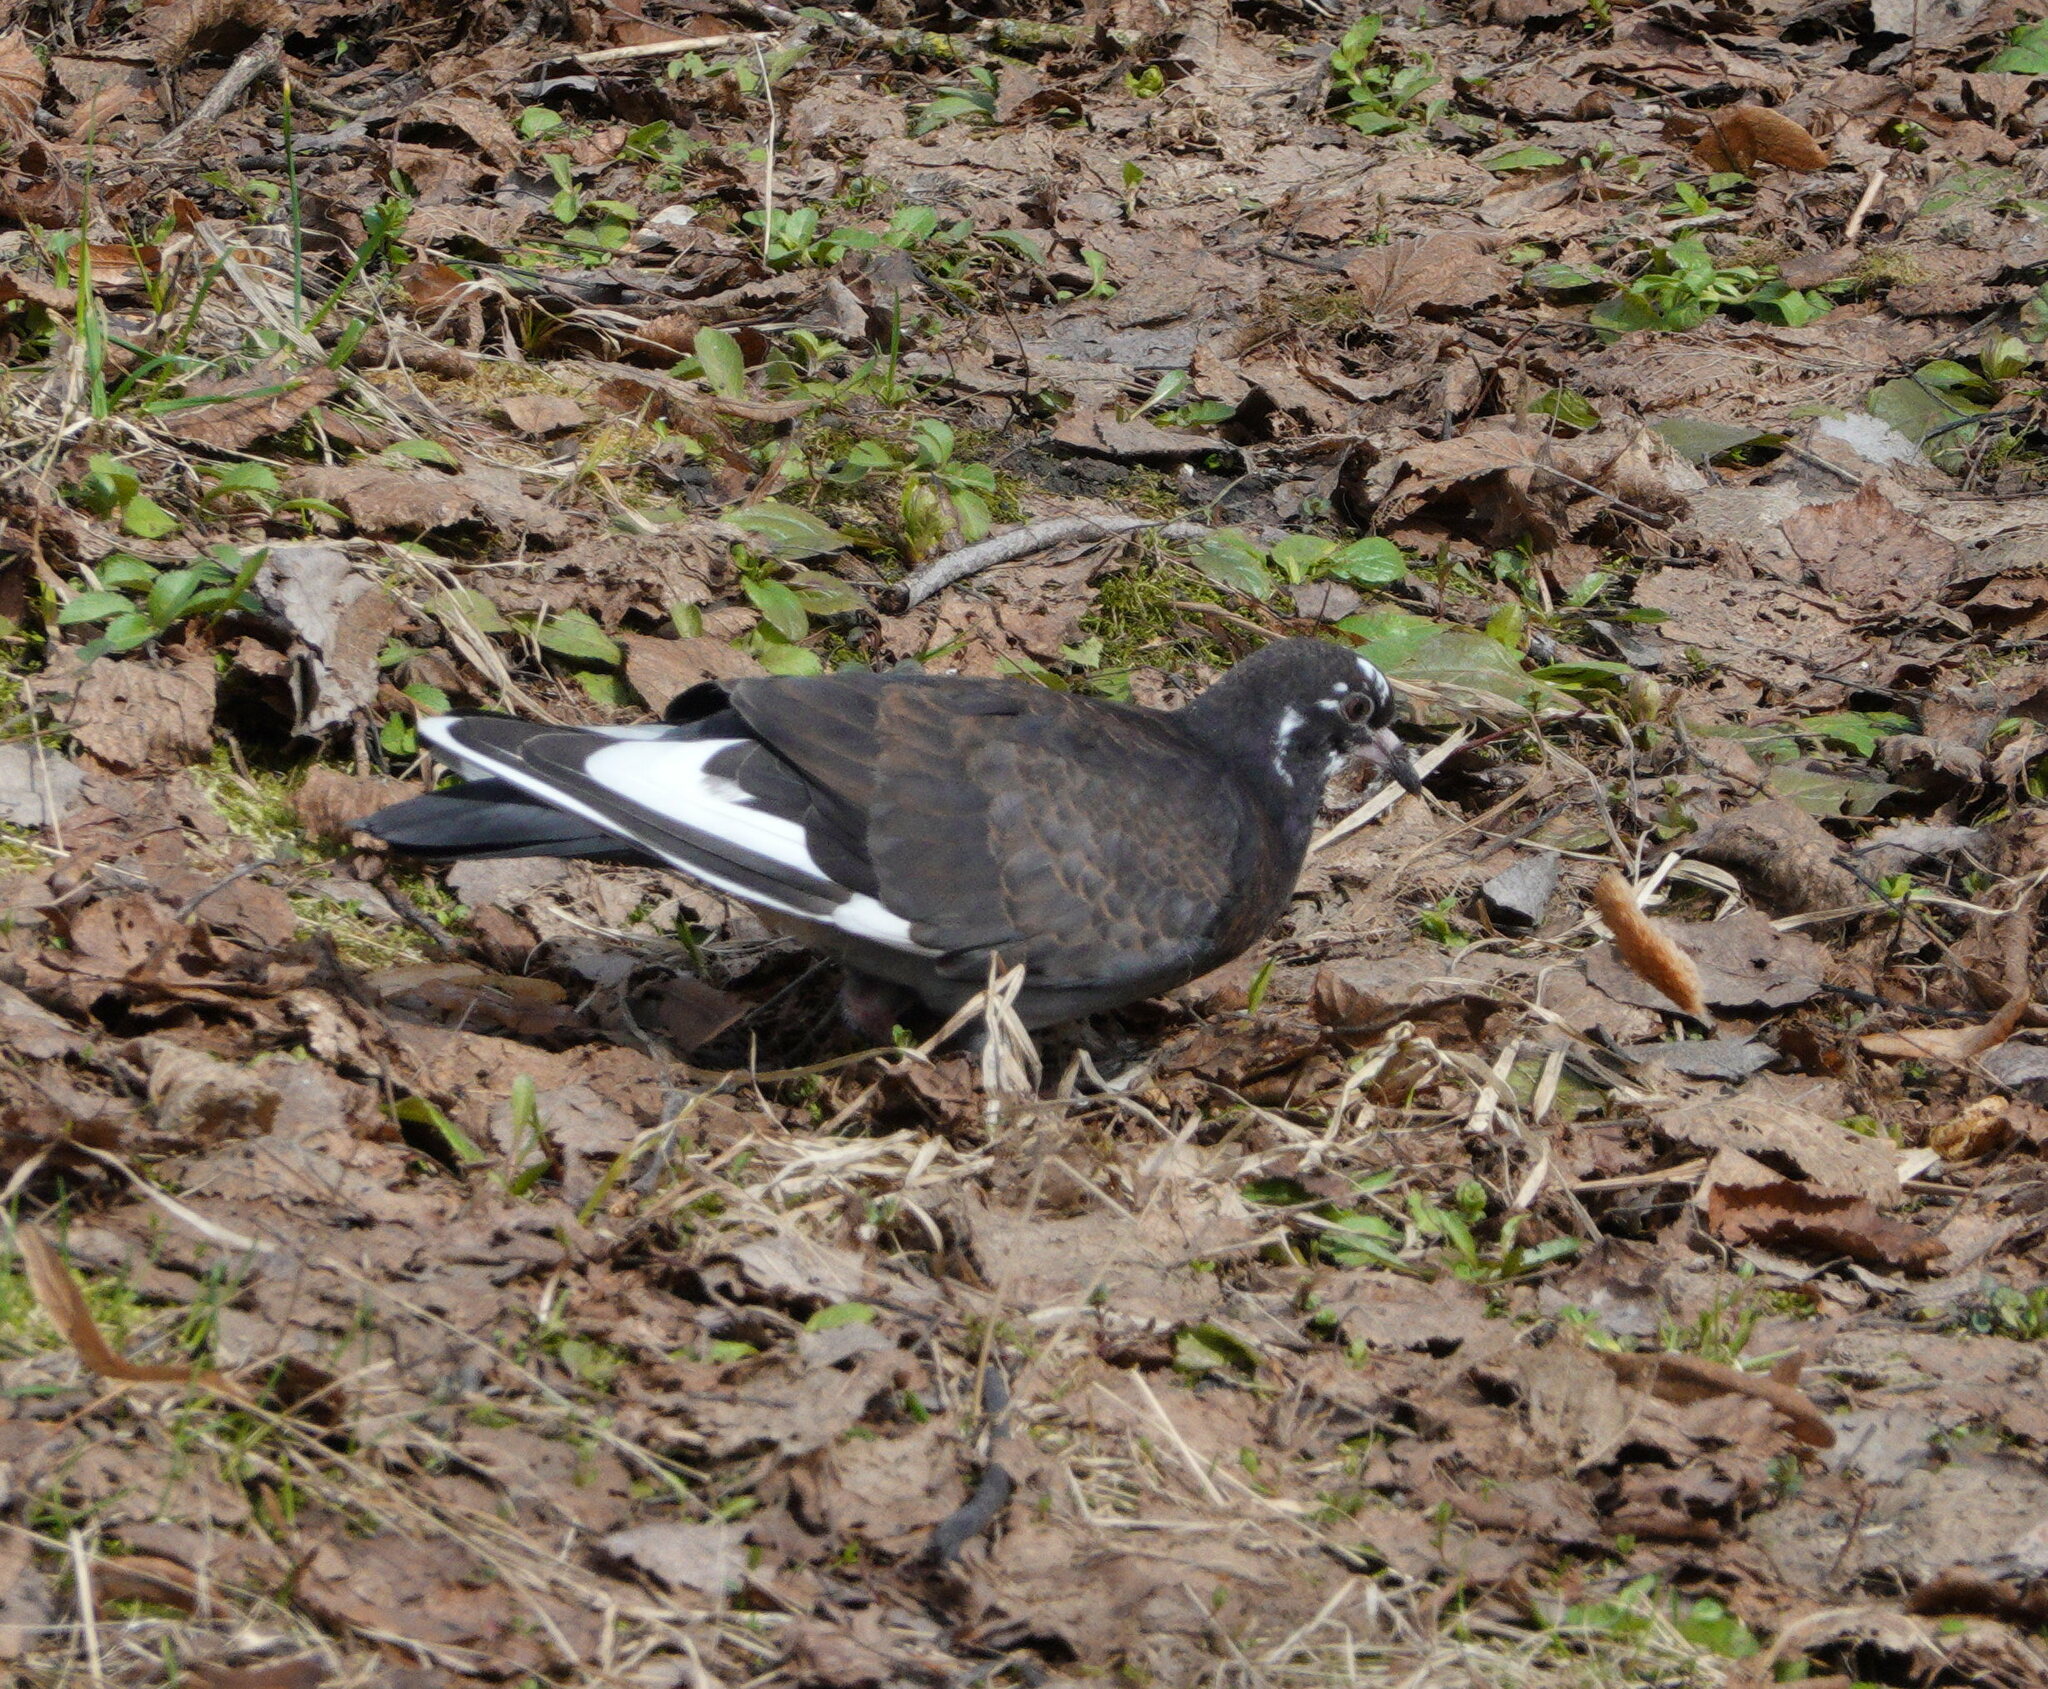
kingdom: Animalia
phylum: Chordata
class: Aves
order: Columbiformes
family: Columbidae
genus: Columba
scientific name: Columba livia
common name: Rock pigeon
